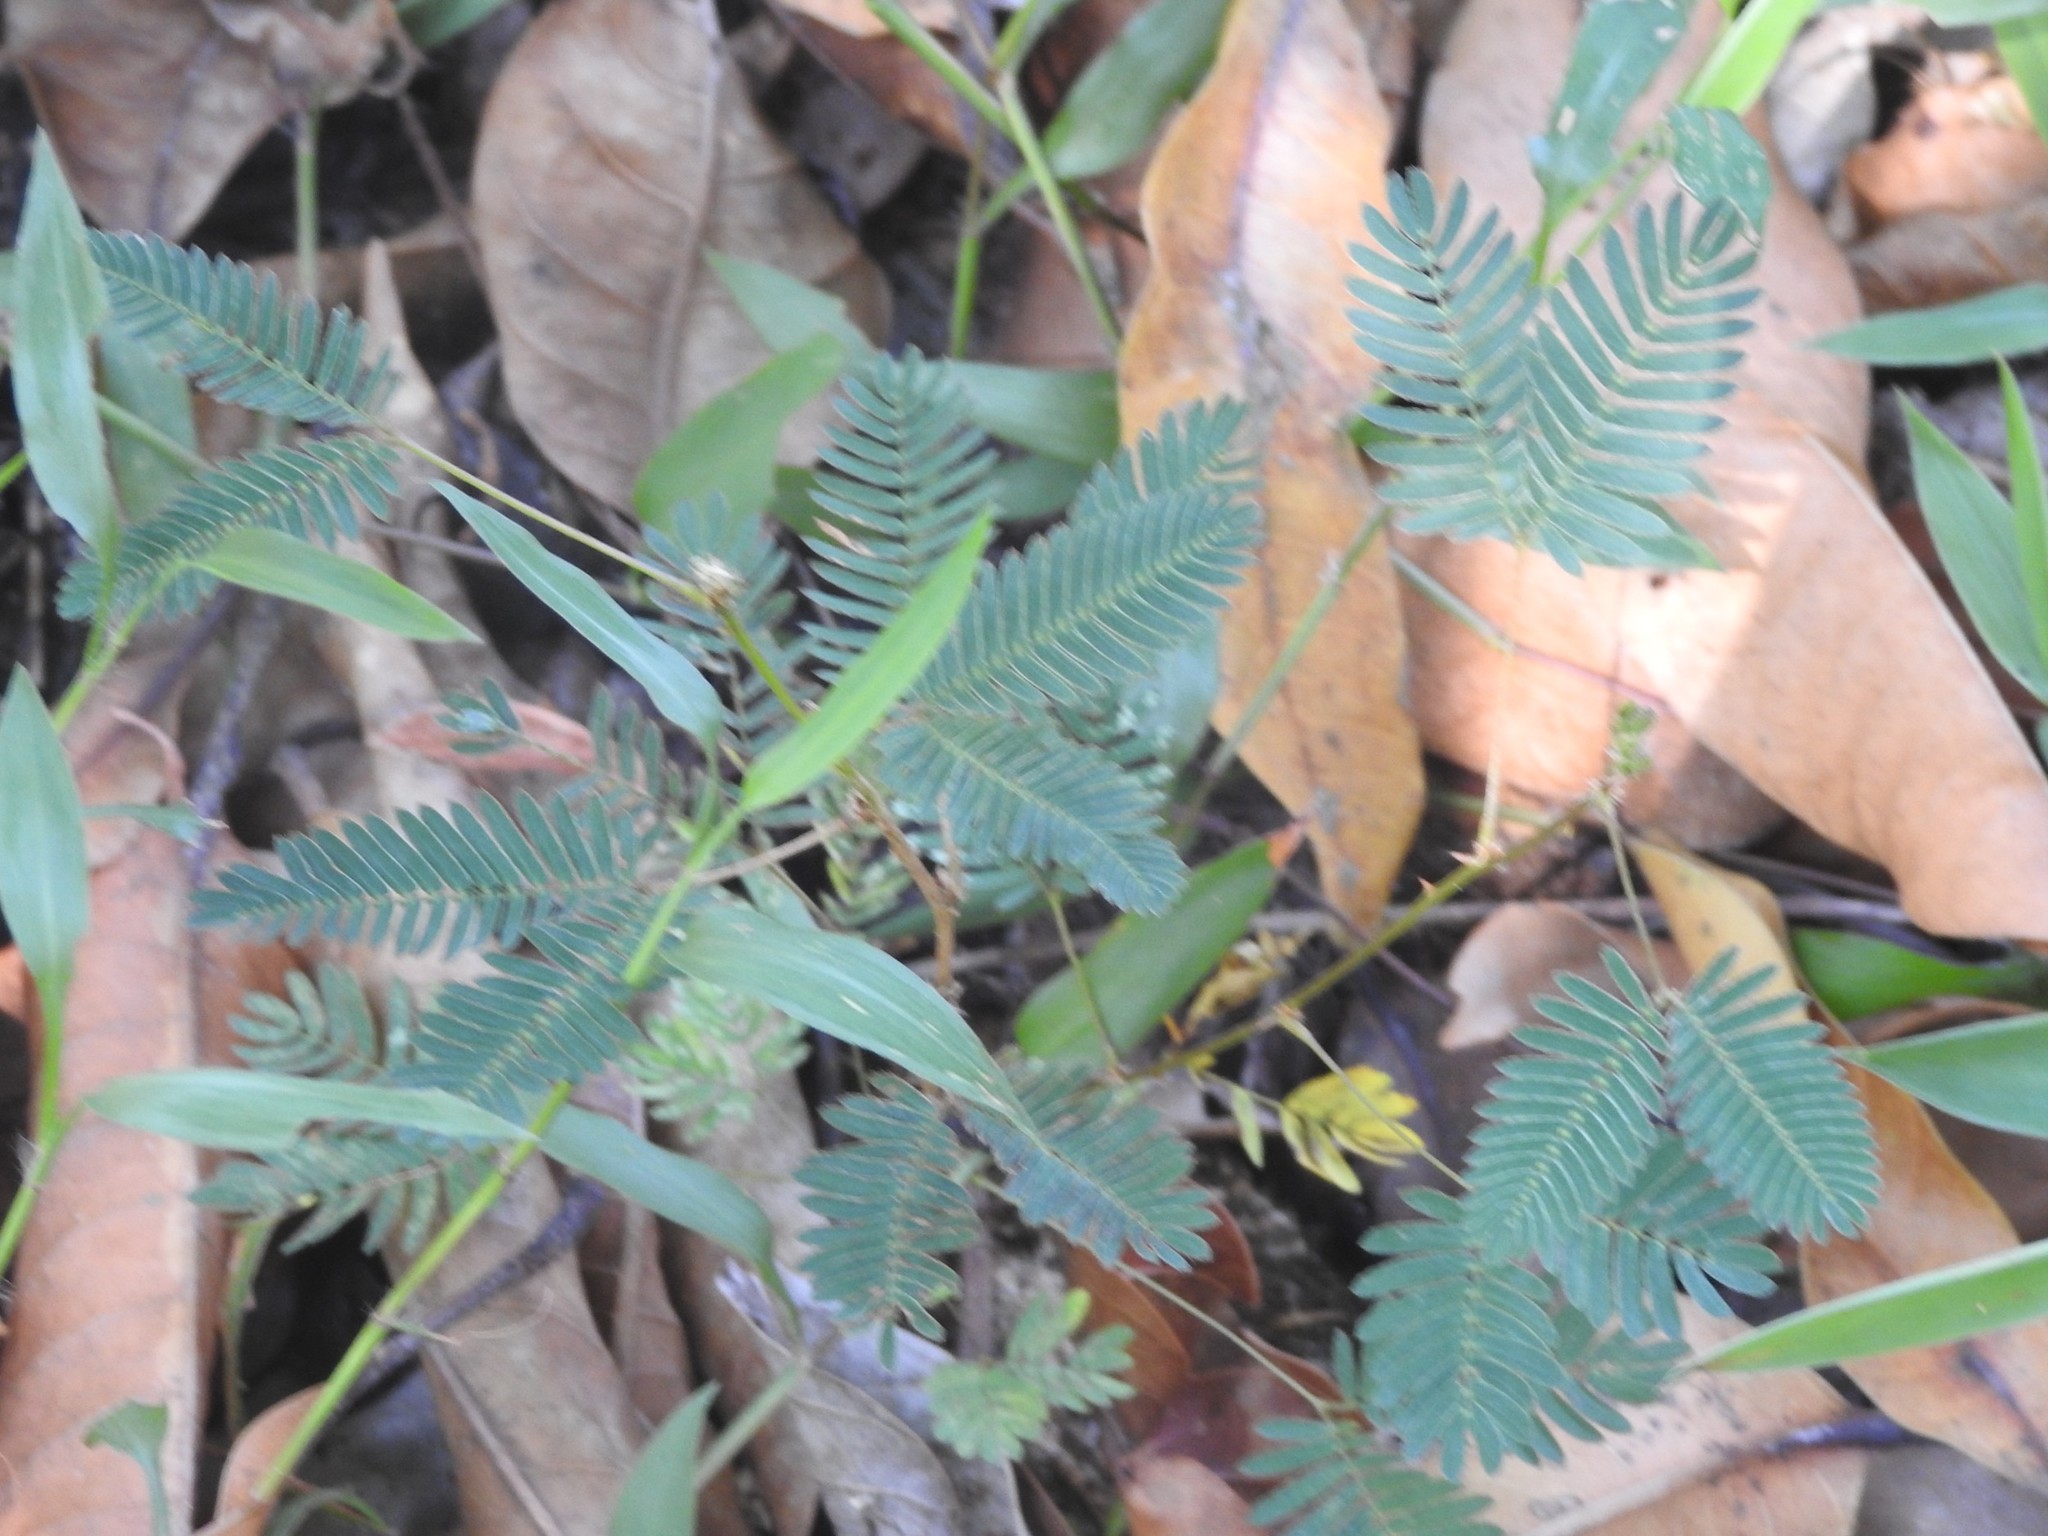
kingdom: Plantae
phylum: Tracheophyta
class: Magnoliopsida
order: Fabales
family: Fabaceae
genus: Mimosa
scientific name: Mimosa pudica
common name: Sensitive plant
